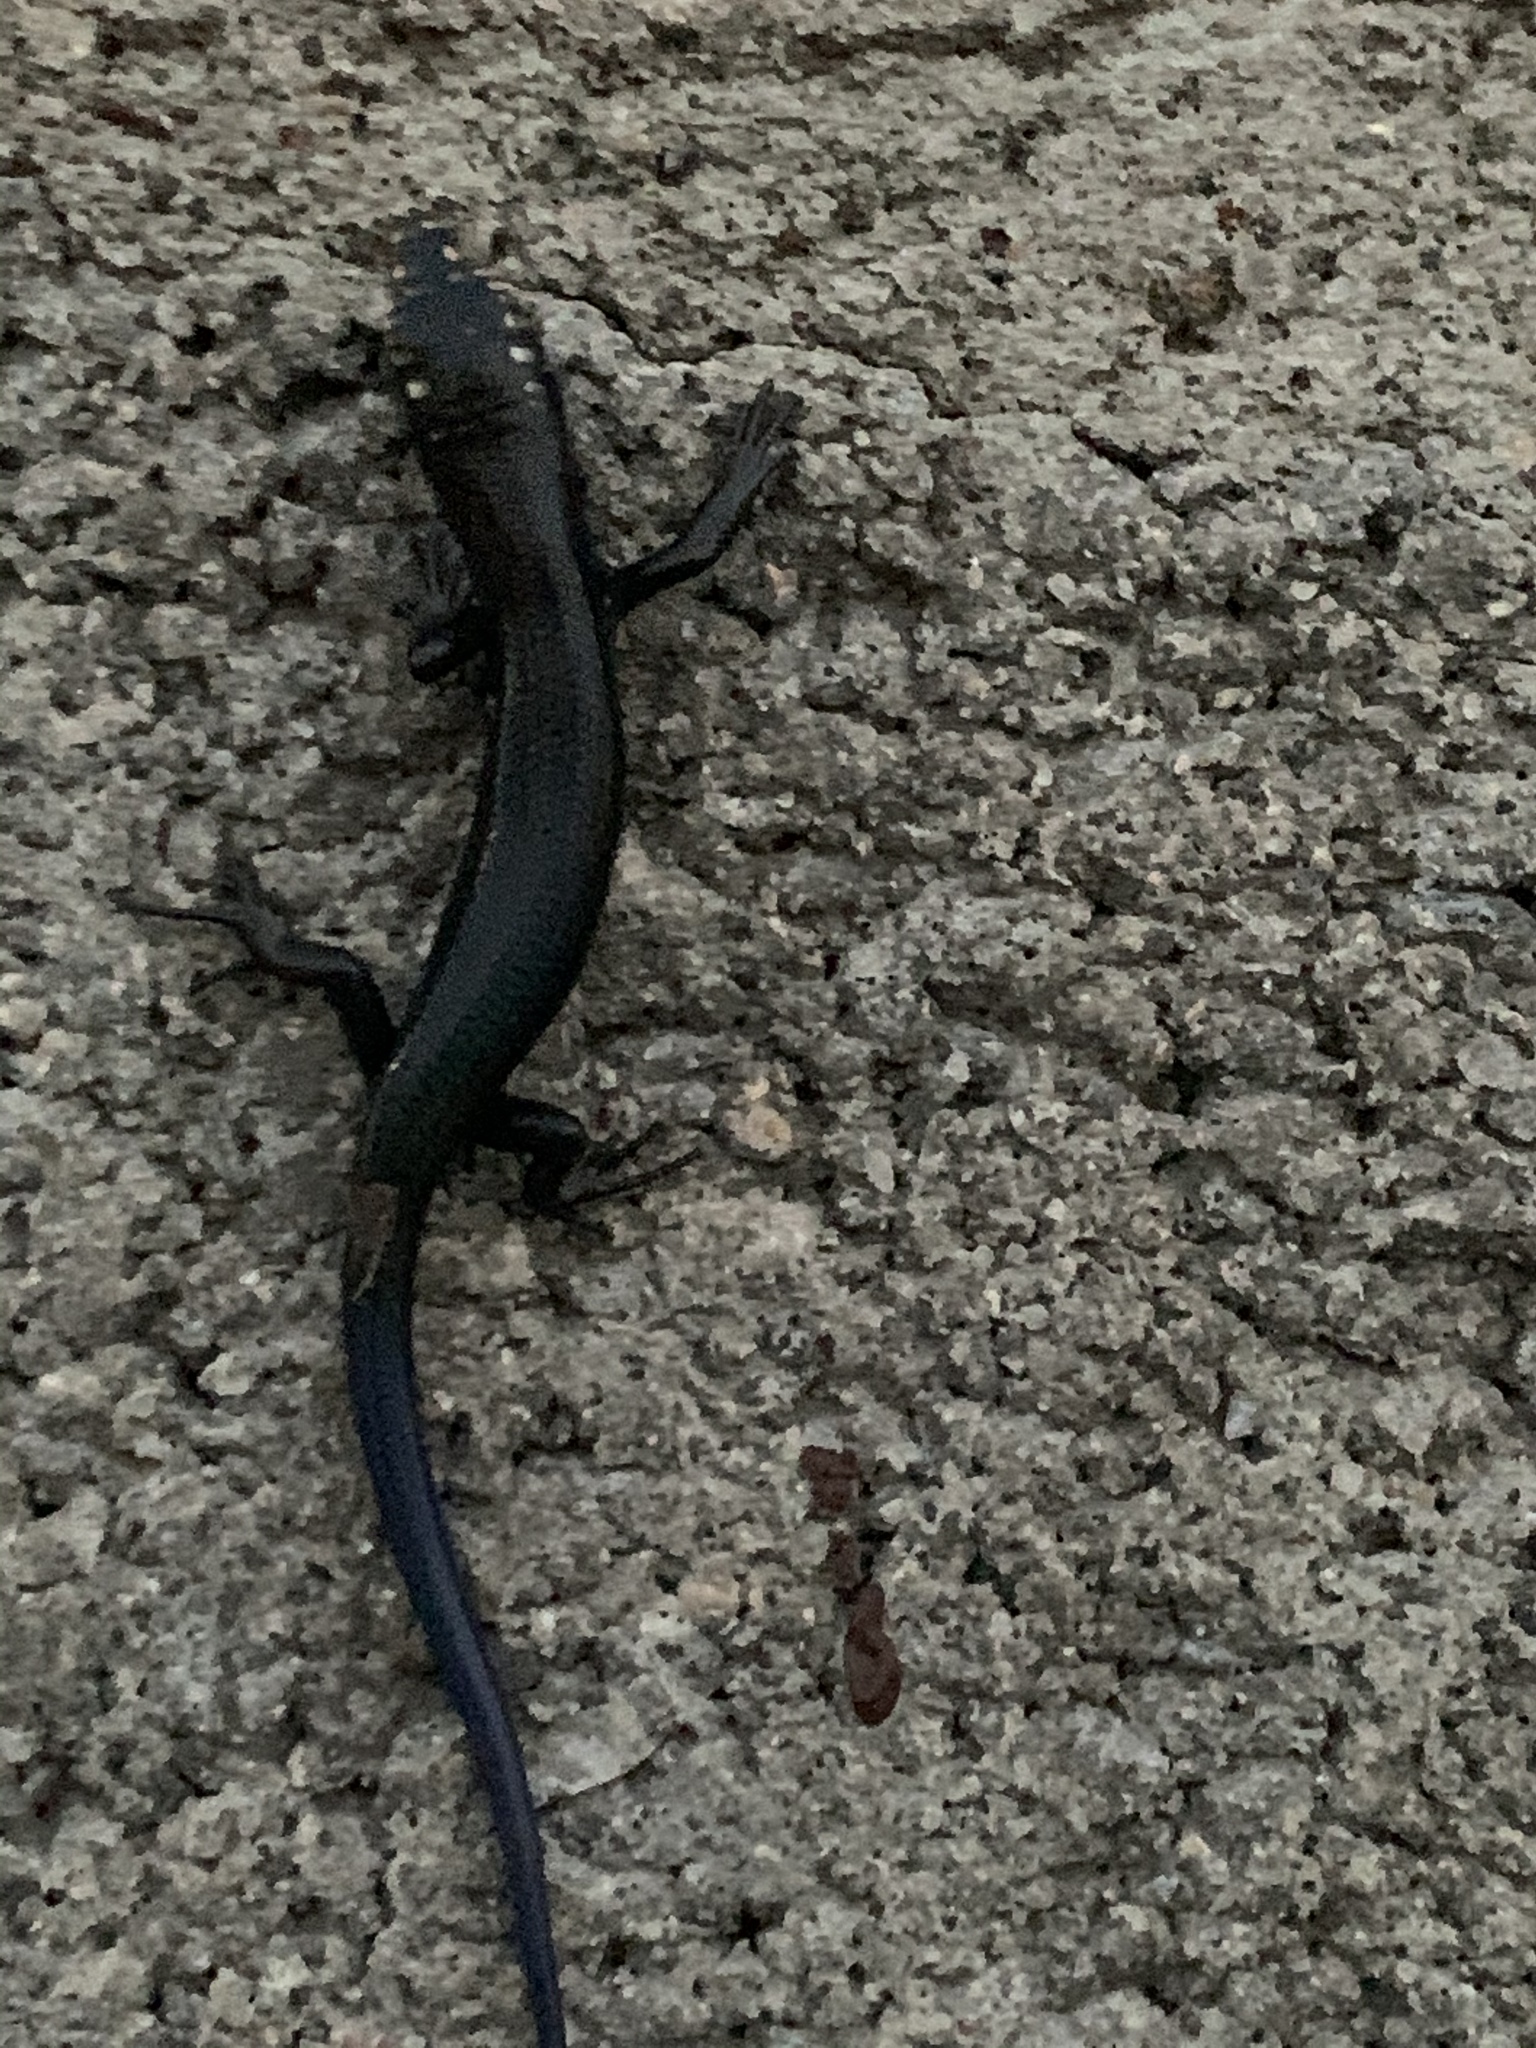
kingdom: Animalia
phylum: Chordata
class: Squamata
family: Scincidae
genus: Plestiodon
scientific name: Plestiodon obsoletus
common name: Great plains skink
